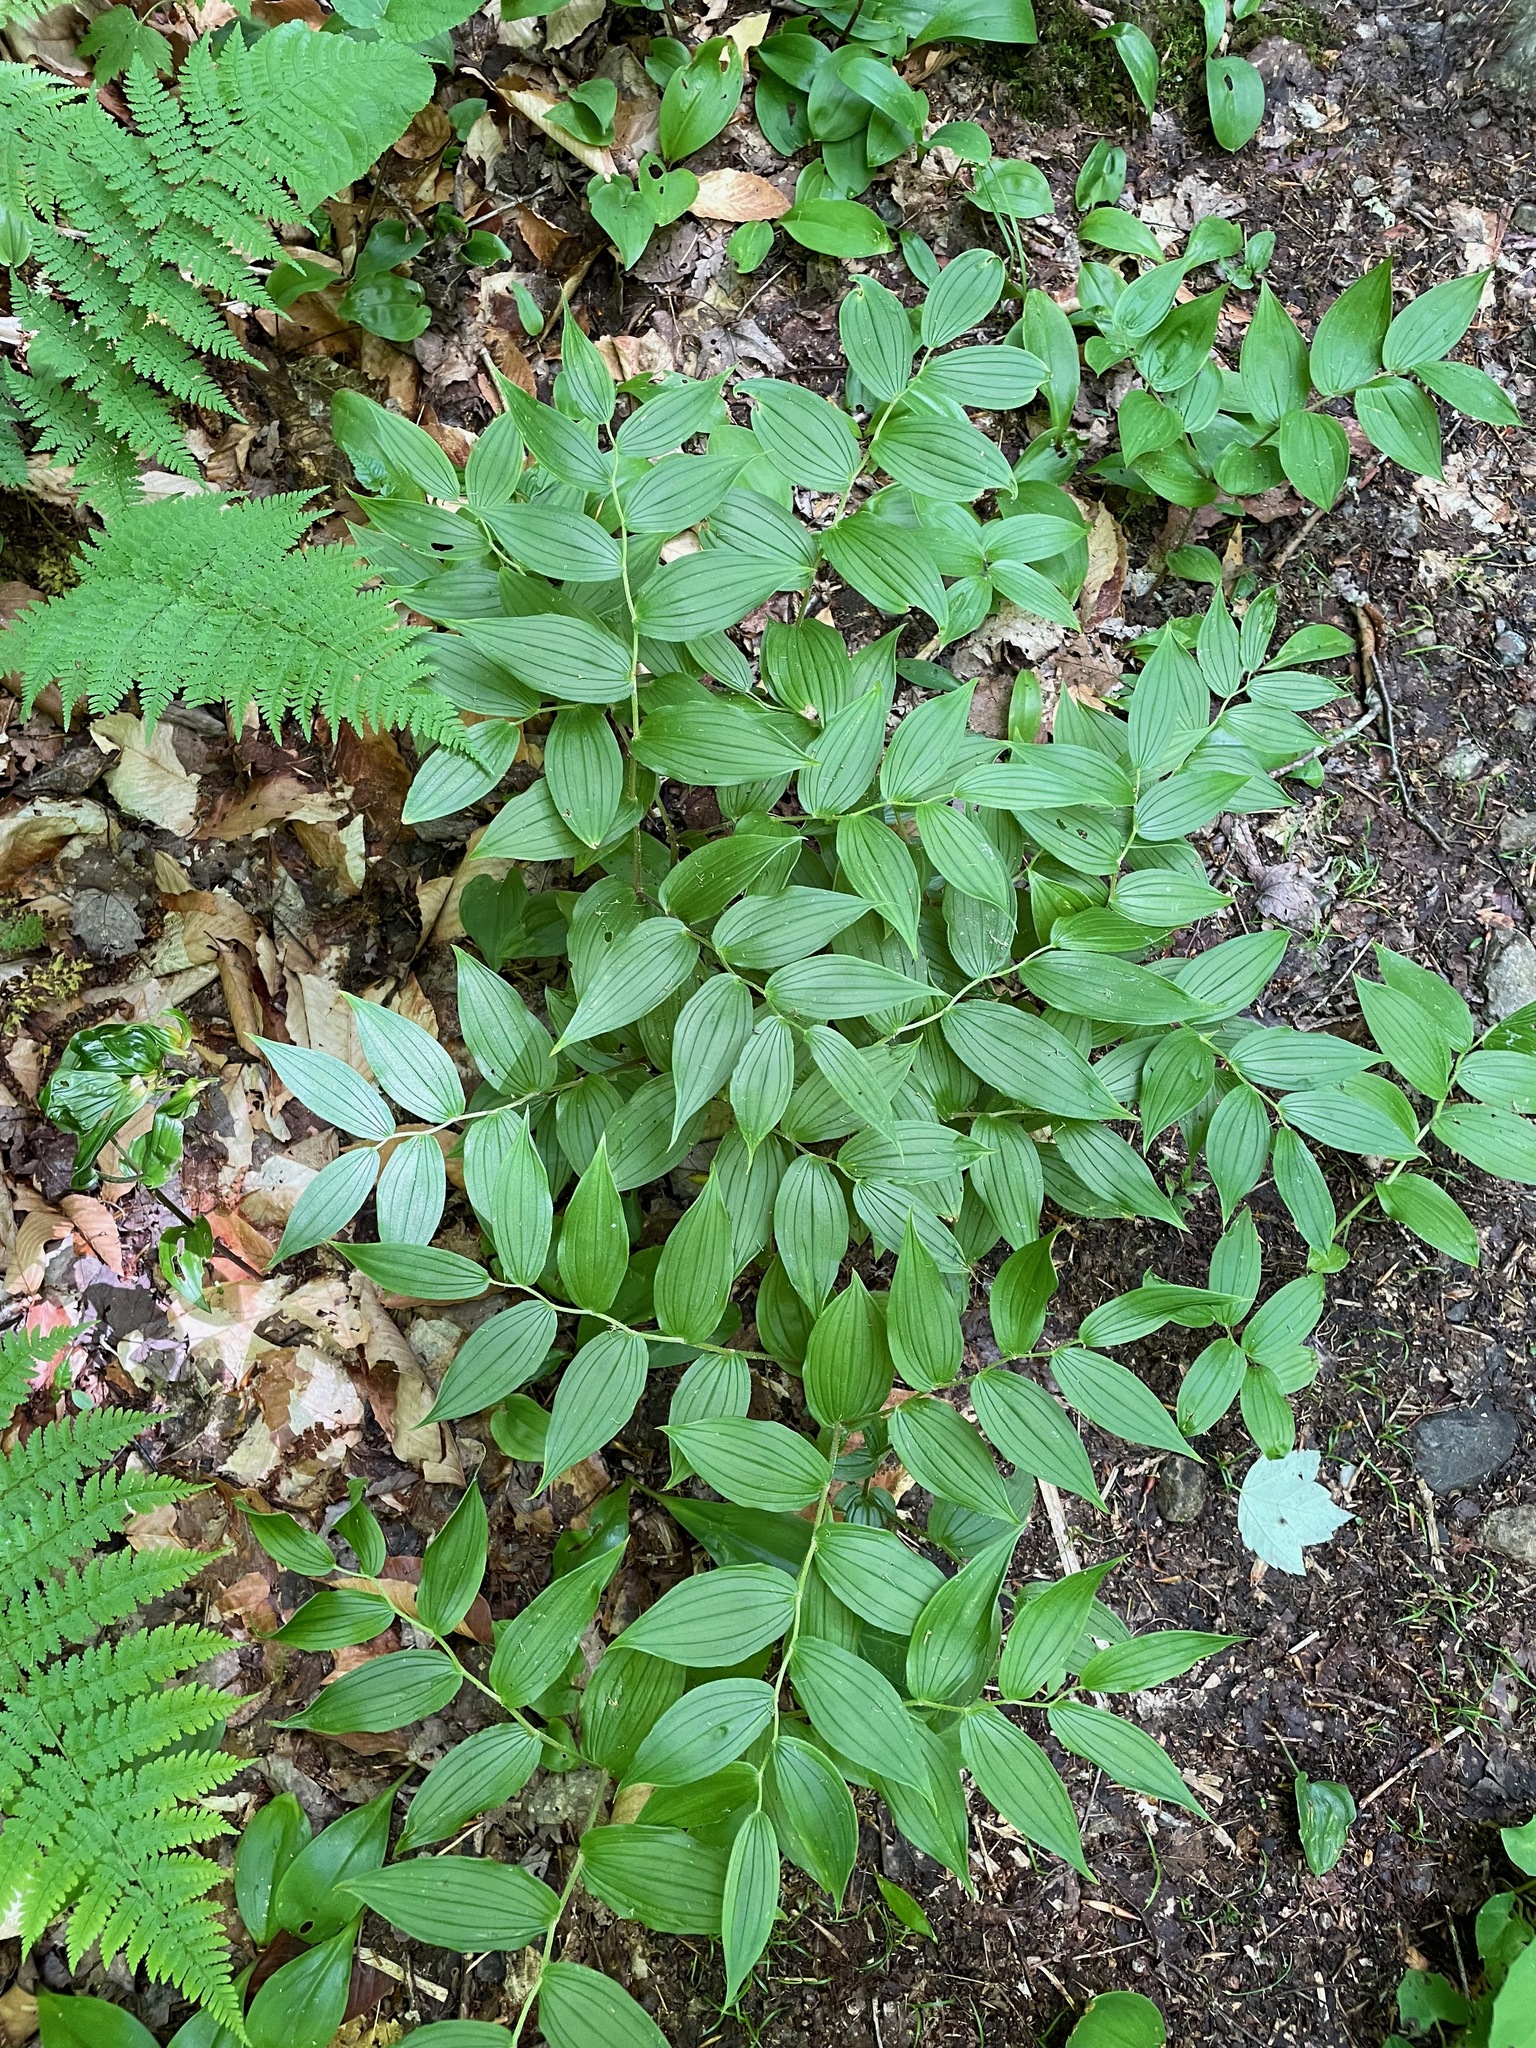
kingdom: Plantae
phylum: Tracheophyta
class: Liliopsida
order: Liliales
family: Liliaceae
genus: Streptopus
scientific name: Streptopus lanceolatus
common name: Rose mandarin
